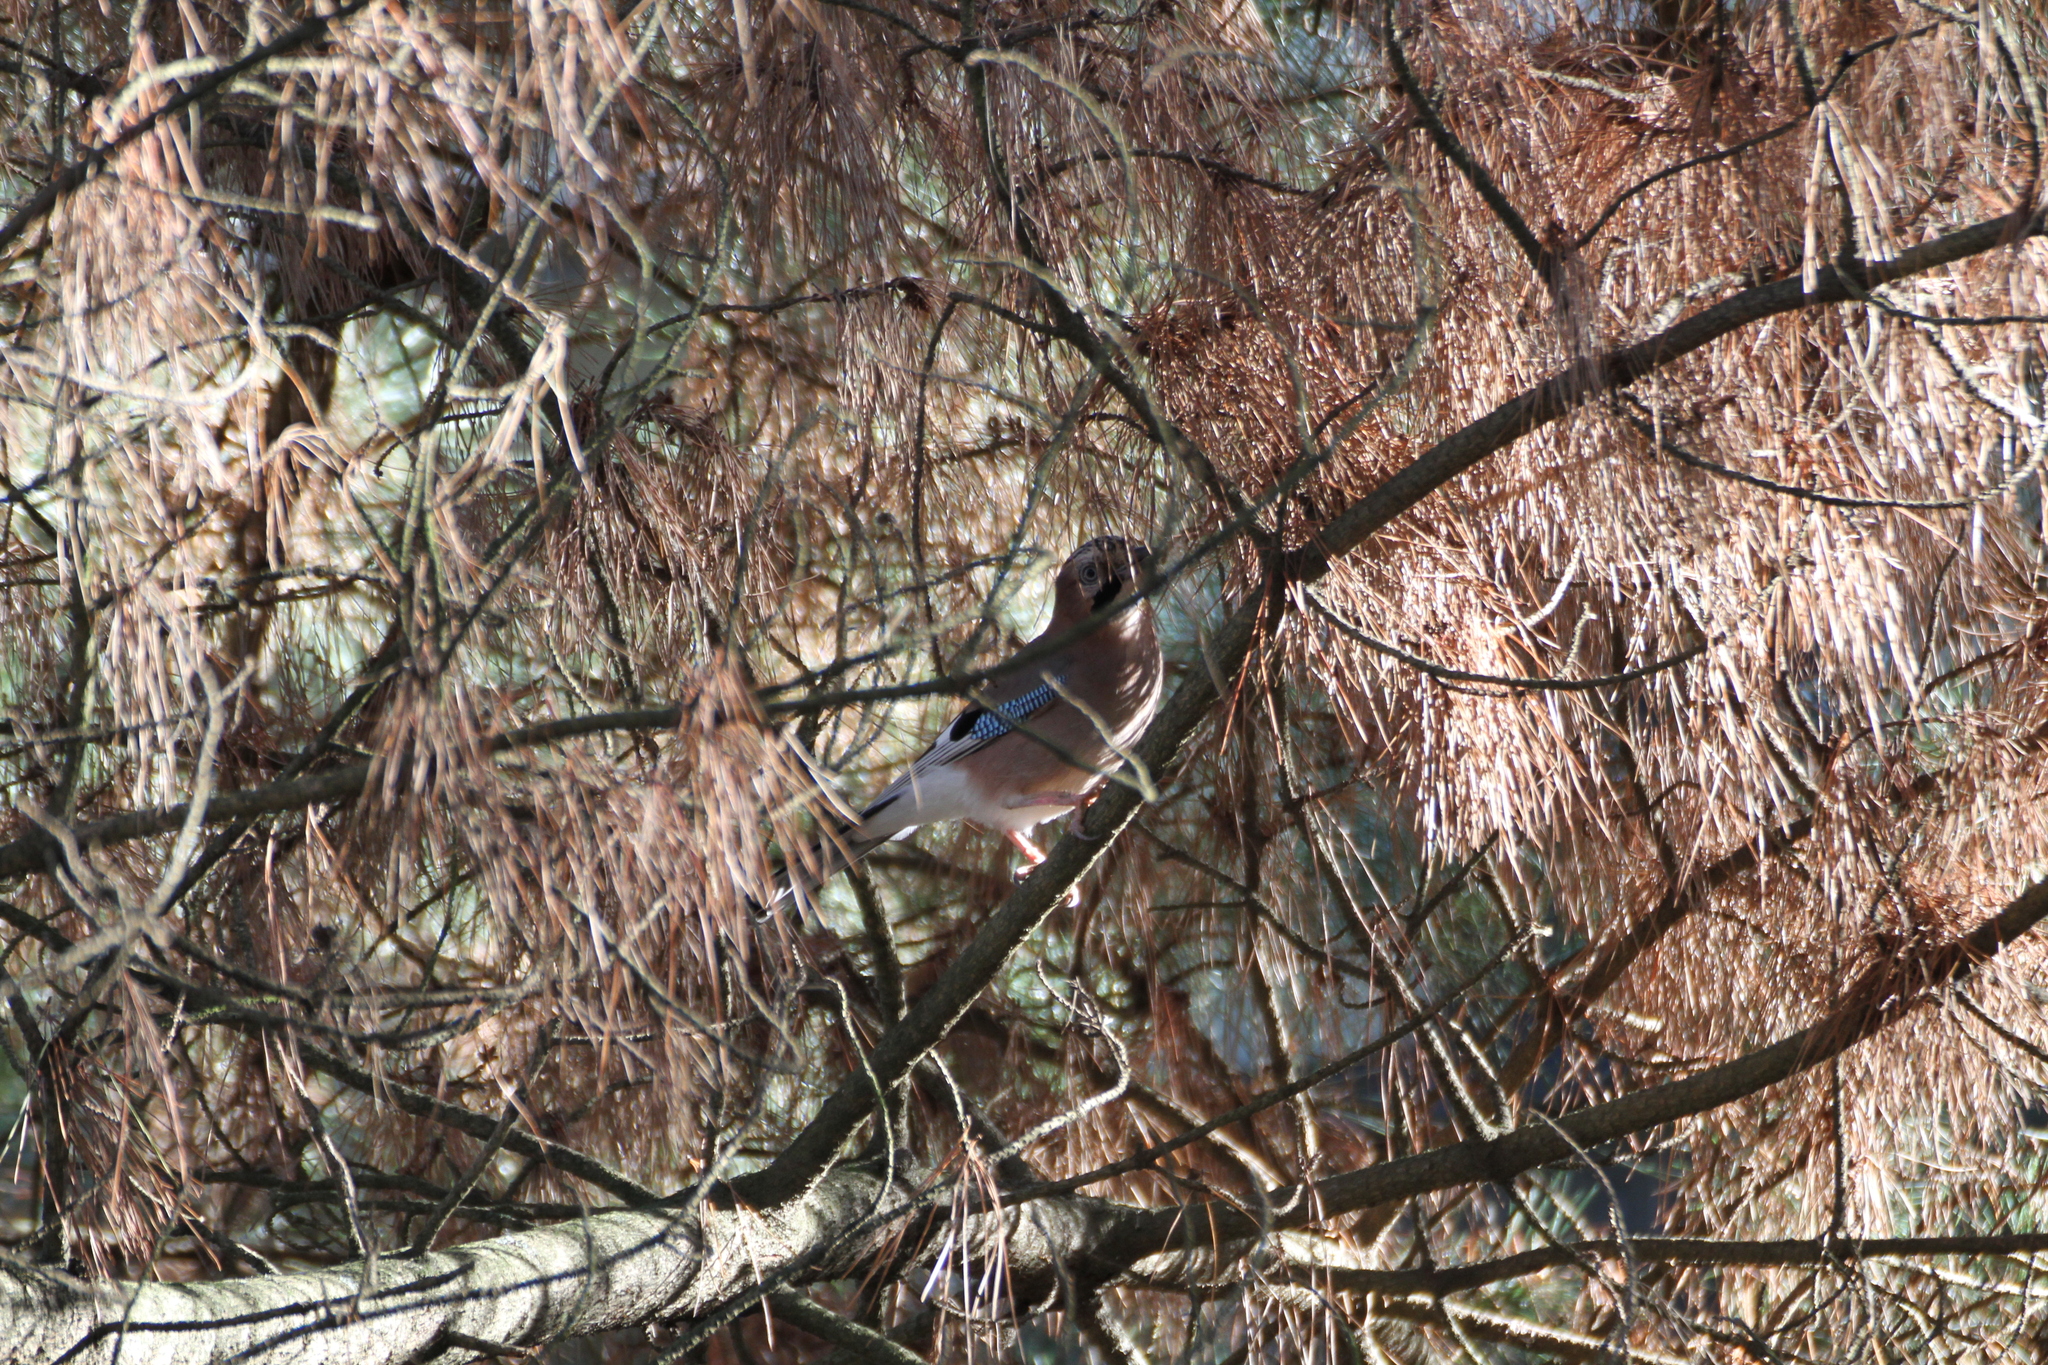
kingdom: Animalia
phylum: Chordata
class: Aves
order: Passeriformes
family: Corvidae
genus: Garrulus
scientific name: Garrulus glandarius
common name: Eurasian jay
